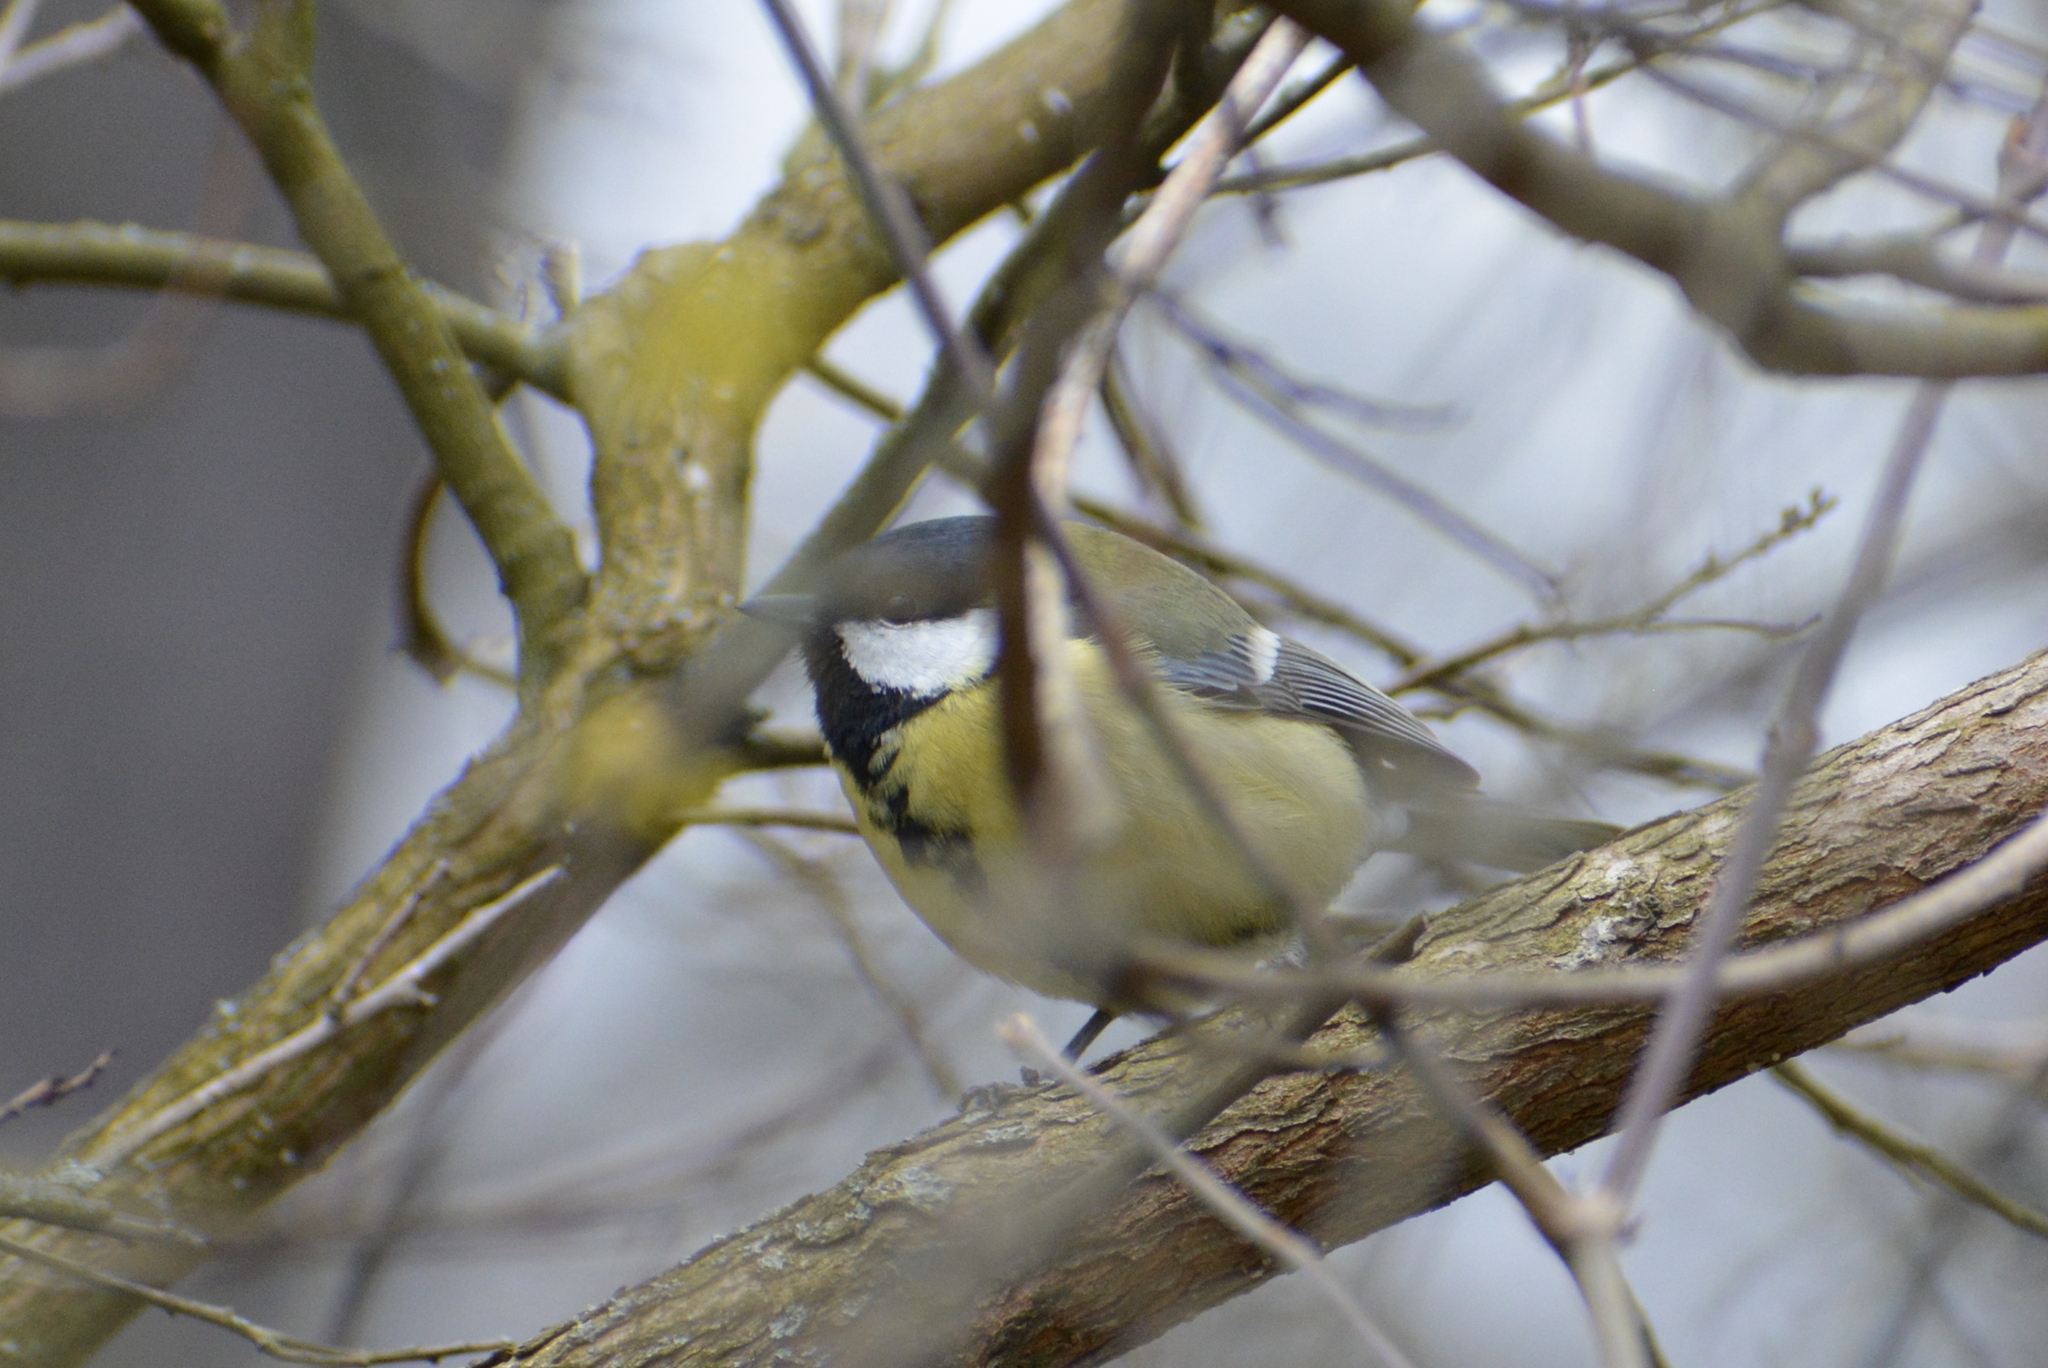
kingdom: Animalia
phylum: Chordata
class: Aves
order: Passeriformes
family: Paridae
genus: Parus
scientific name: Parus major
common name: Great tit
